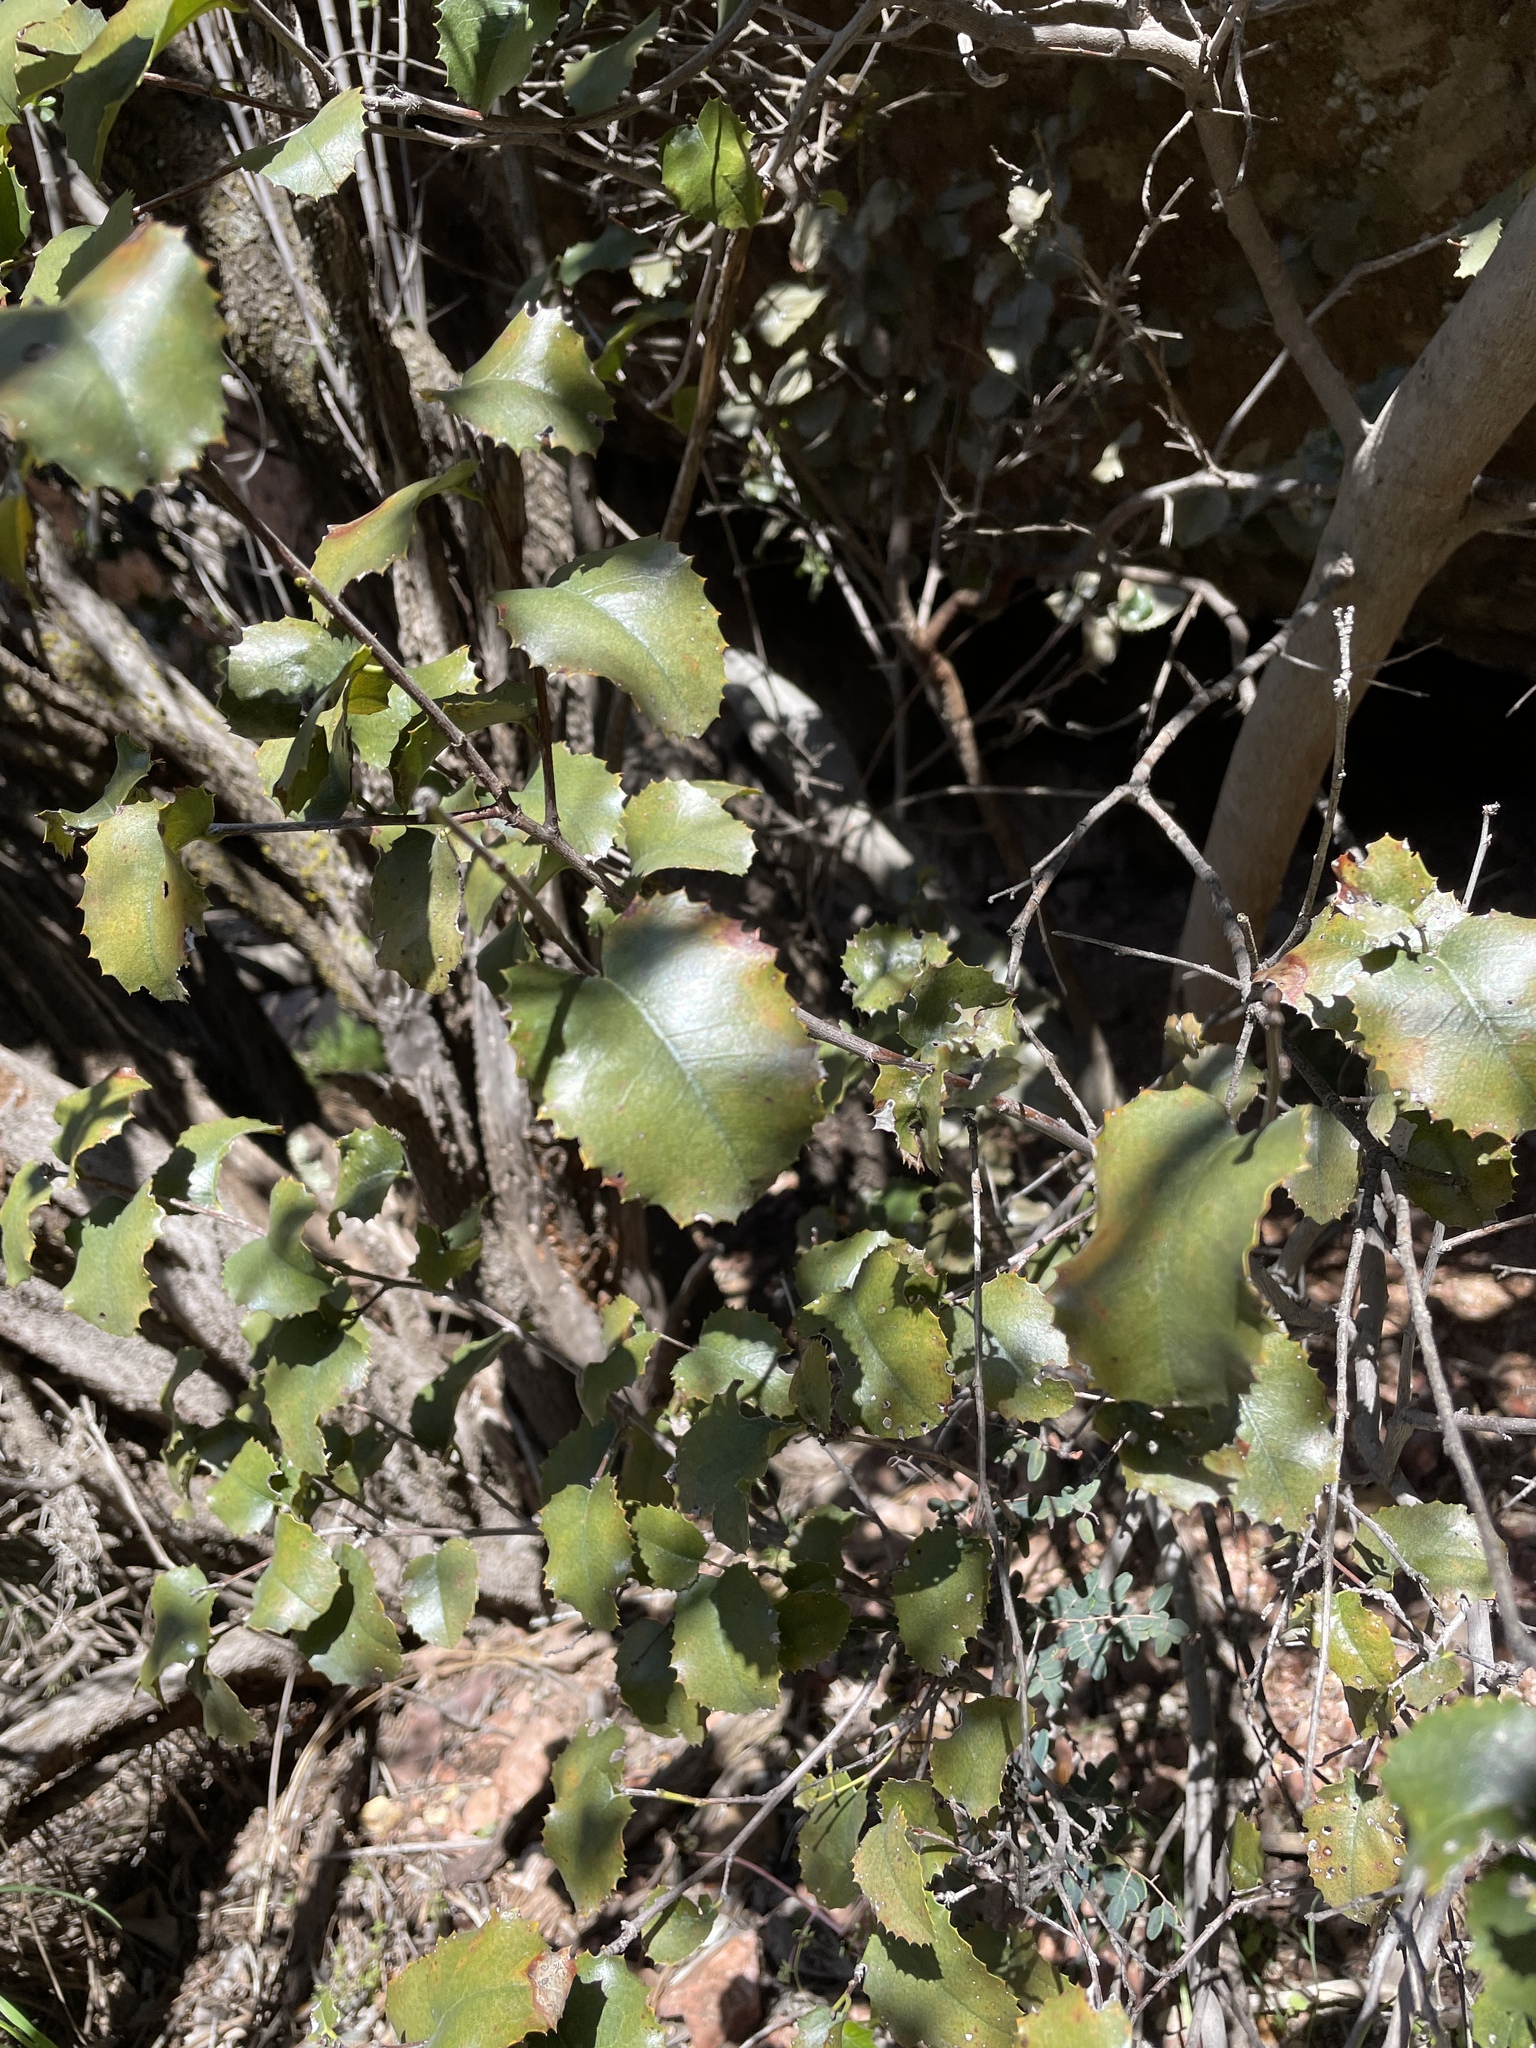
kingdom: Plantae
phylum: Tracheophyta
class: Magnoliopsida
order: Rosales
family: Rosaceae
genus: Prunus
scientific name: Prunus ilicifolia
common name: Hollyleaf cherry
